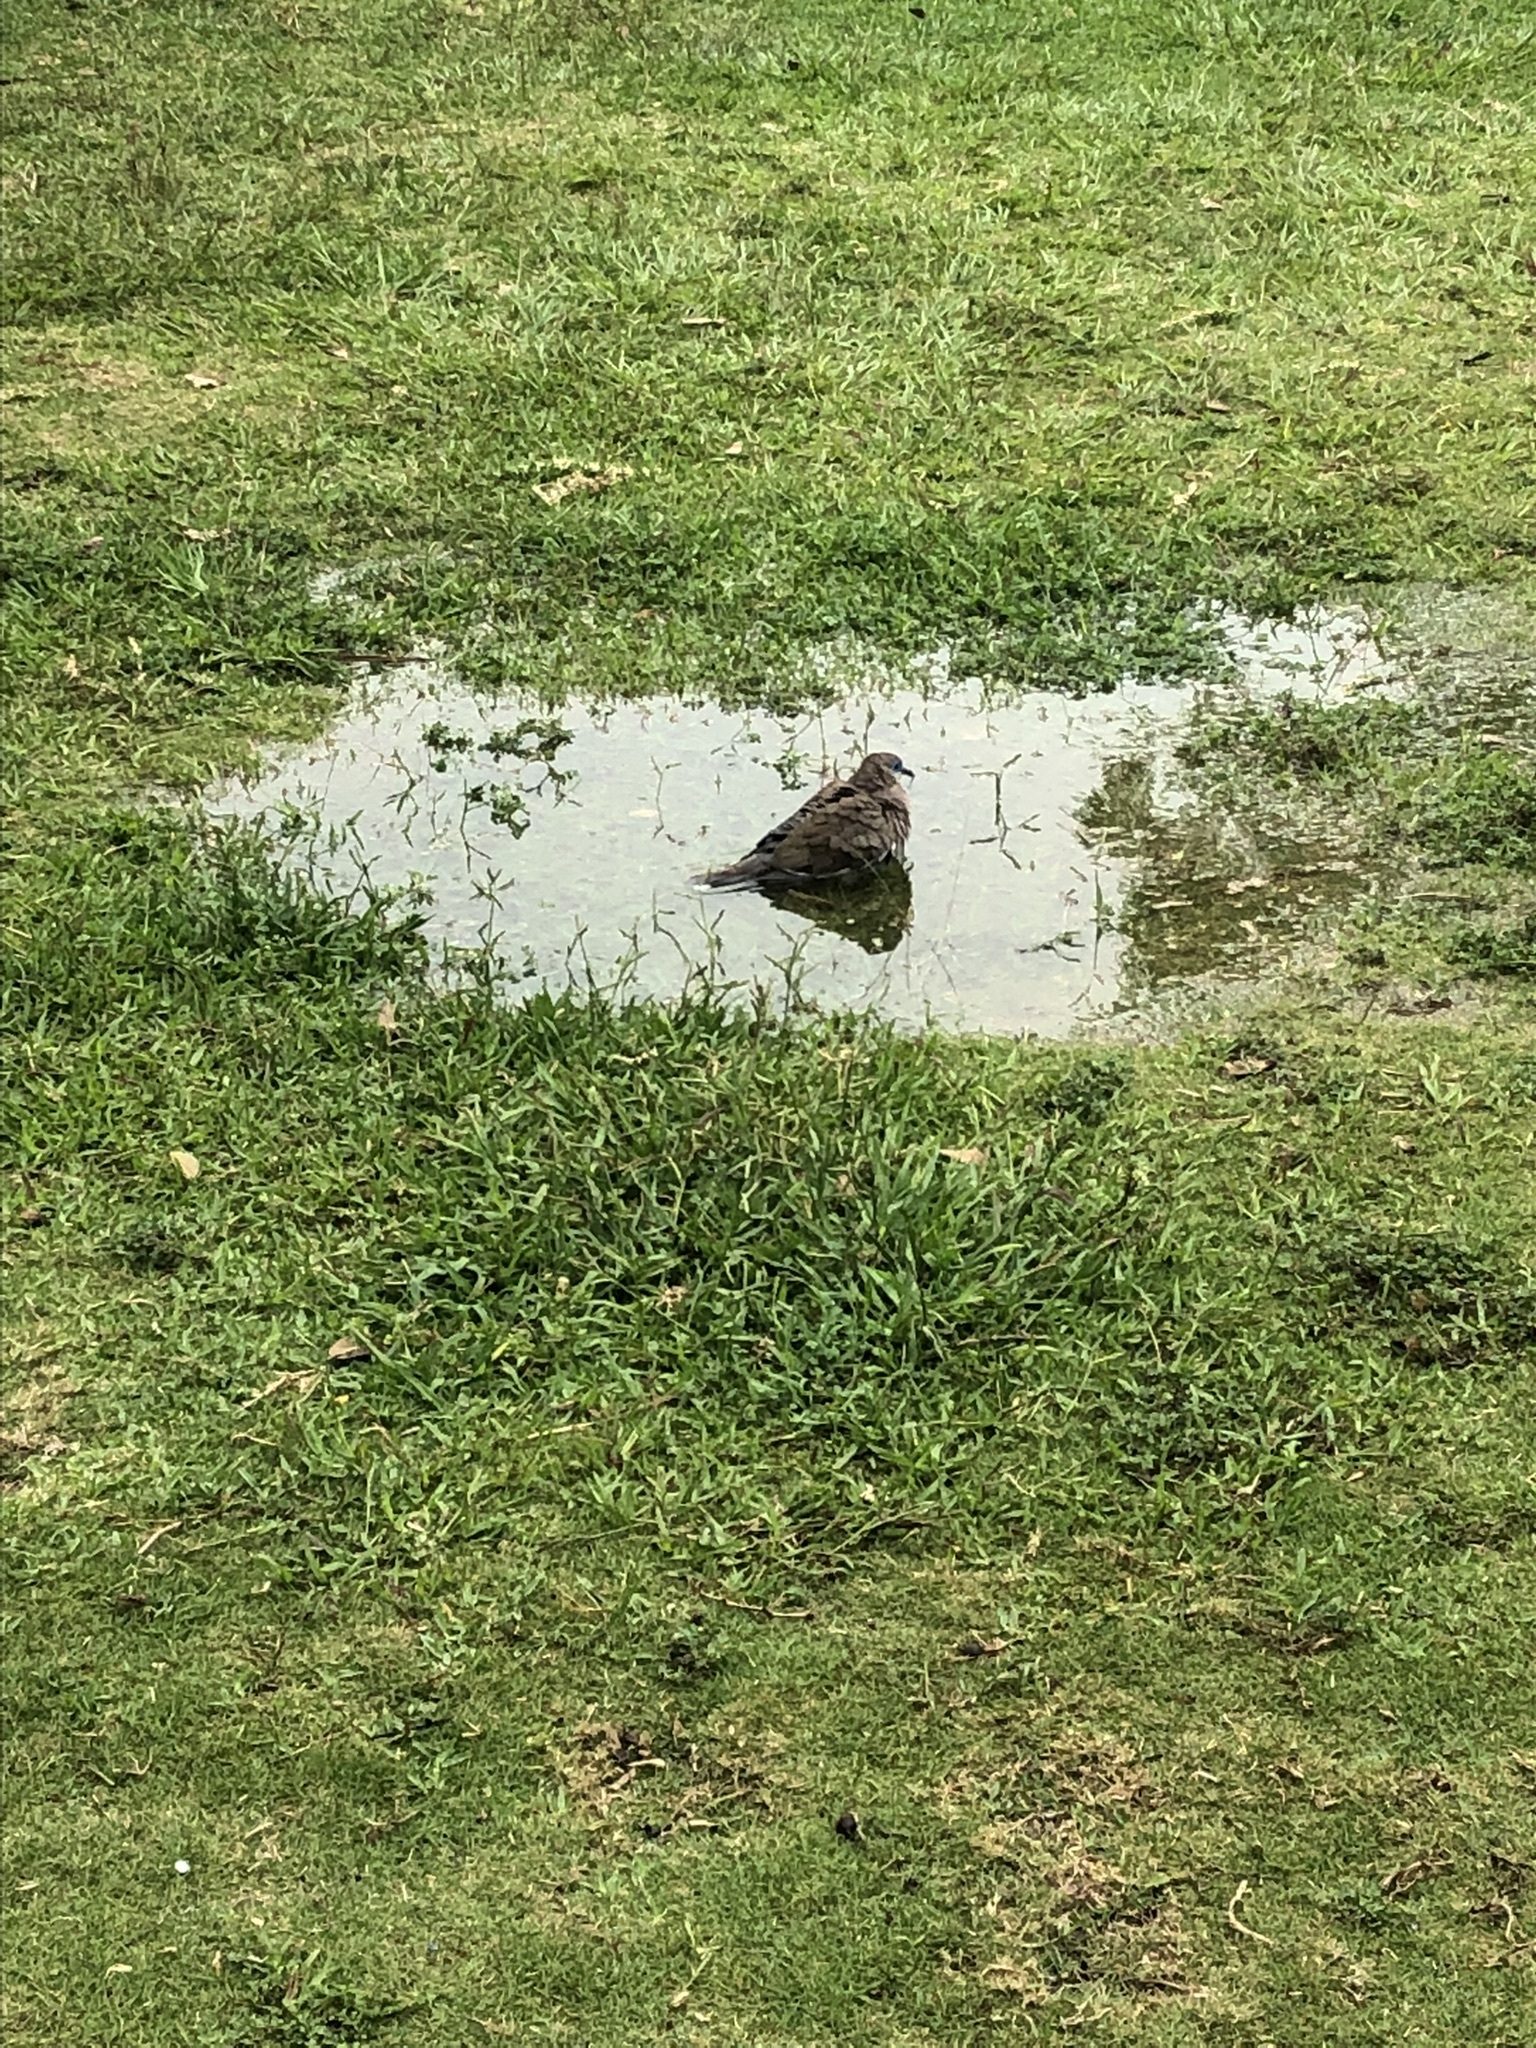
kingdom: Animalia
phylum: Chordata
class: Aves
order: Columbiformes
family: Columbidae
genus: Zenaida
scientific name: Zenaida meloda
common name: West peruvian dove
